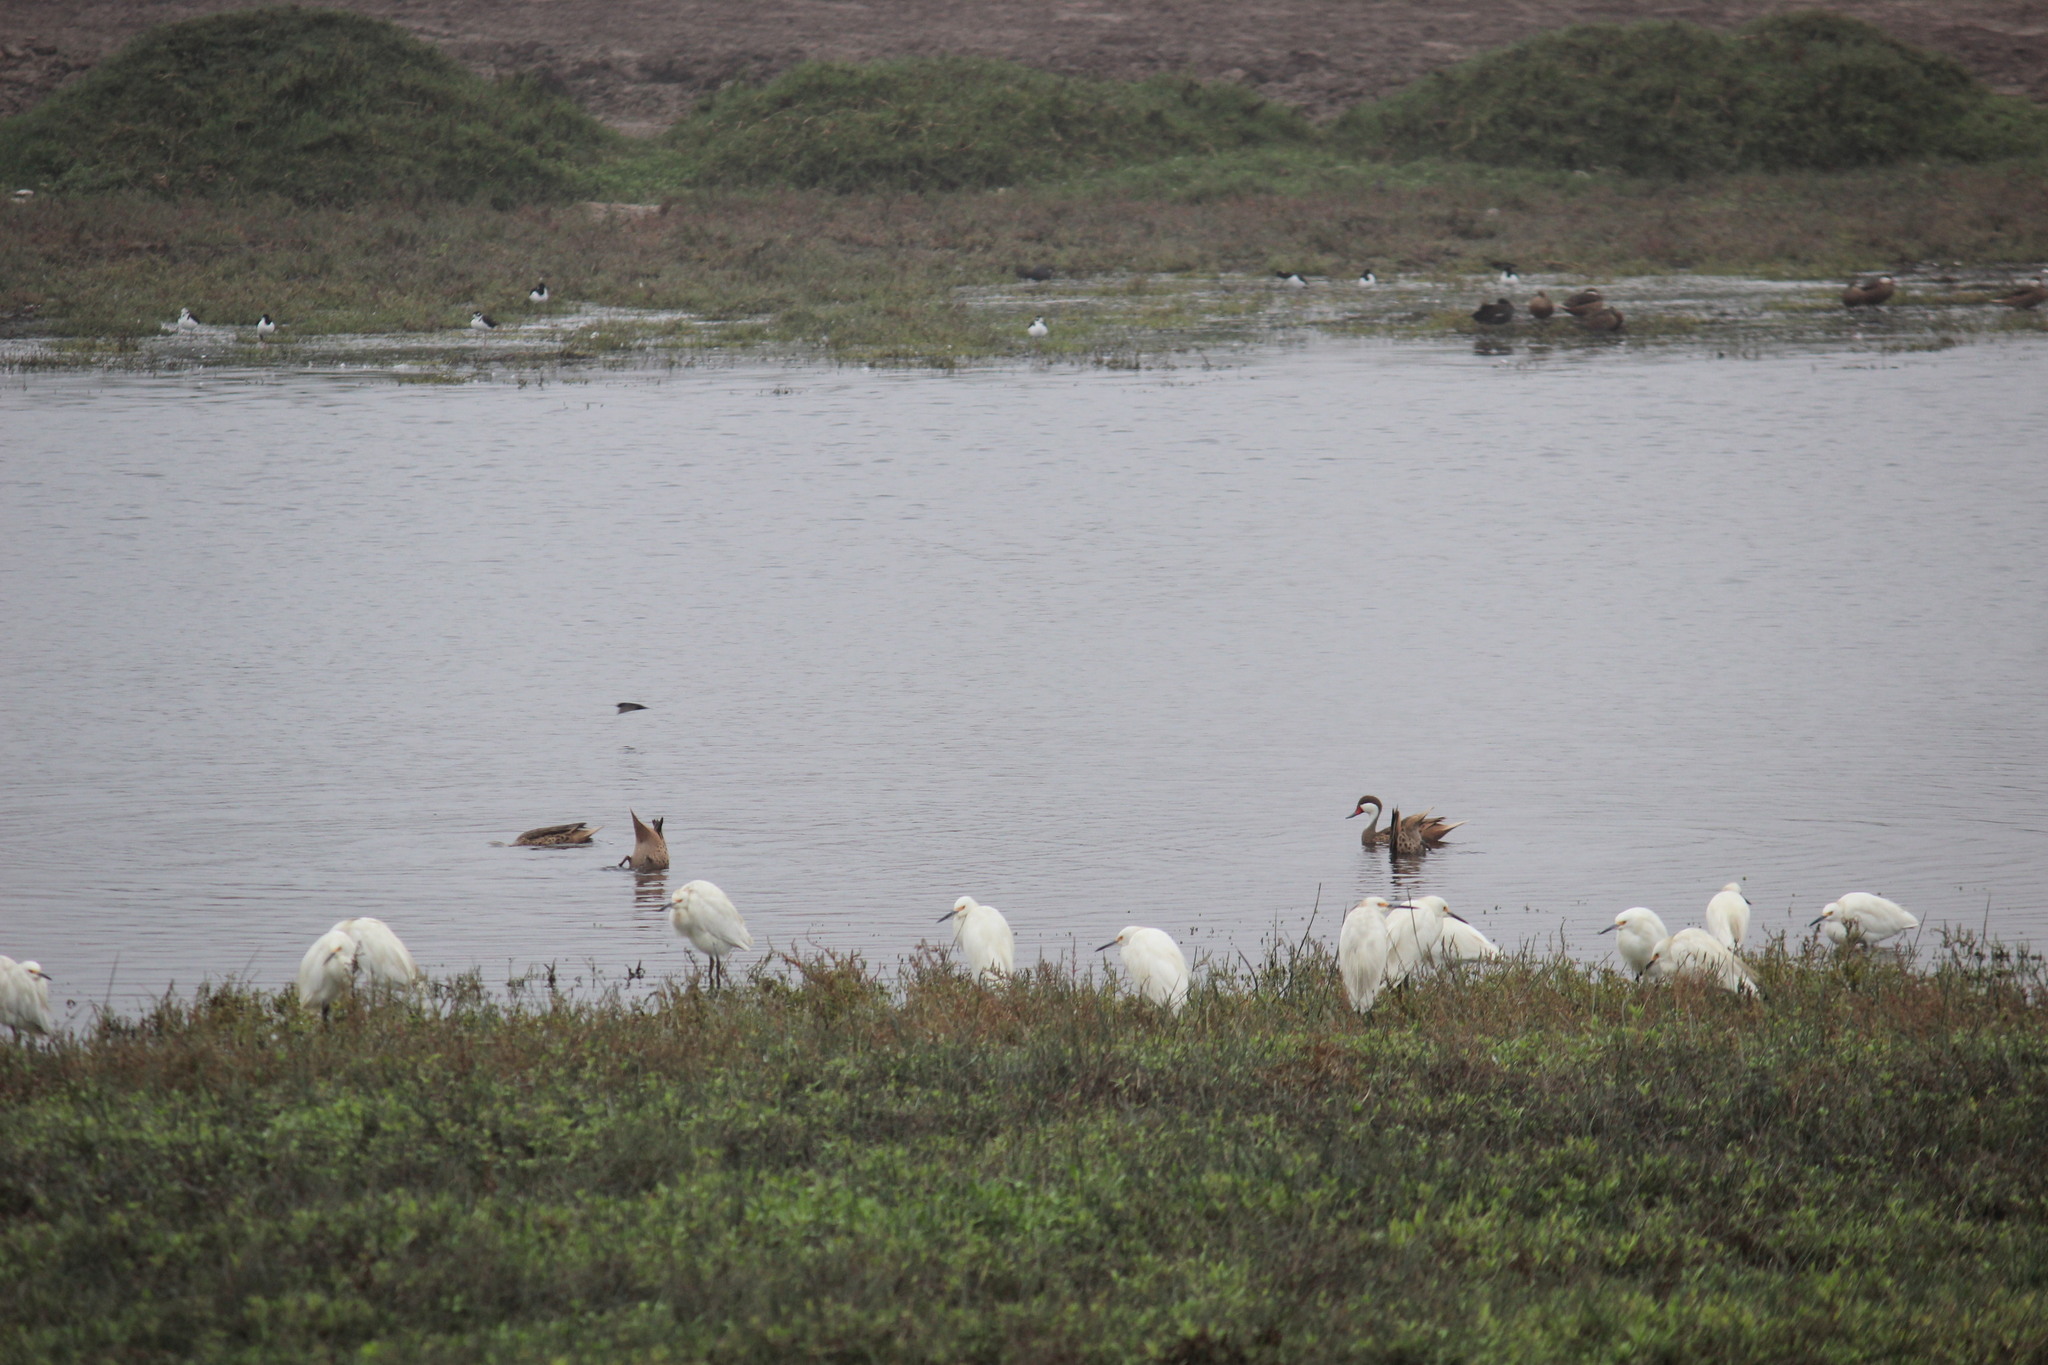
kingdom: Animalia
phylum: Chordata
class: Aves
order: Anseriformes
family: Anatidae
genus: Anas
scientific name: Anas bahamensis
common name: White-cheeked pintail
